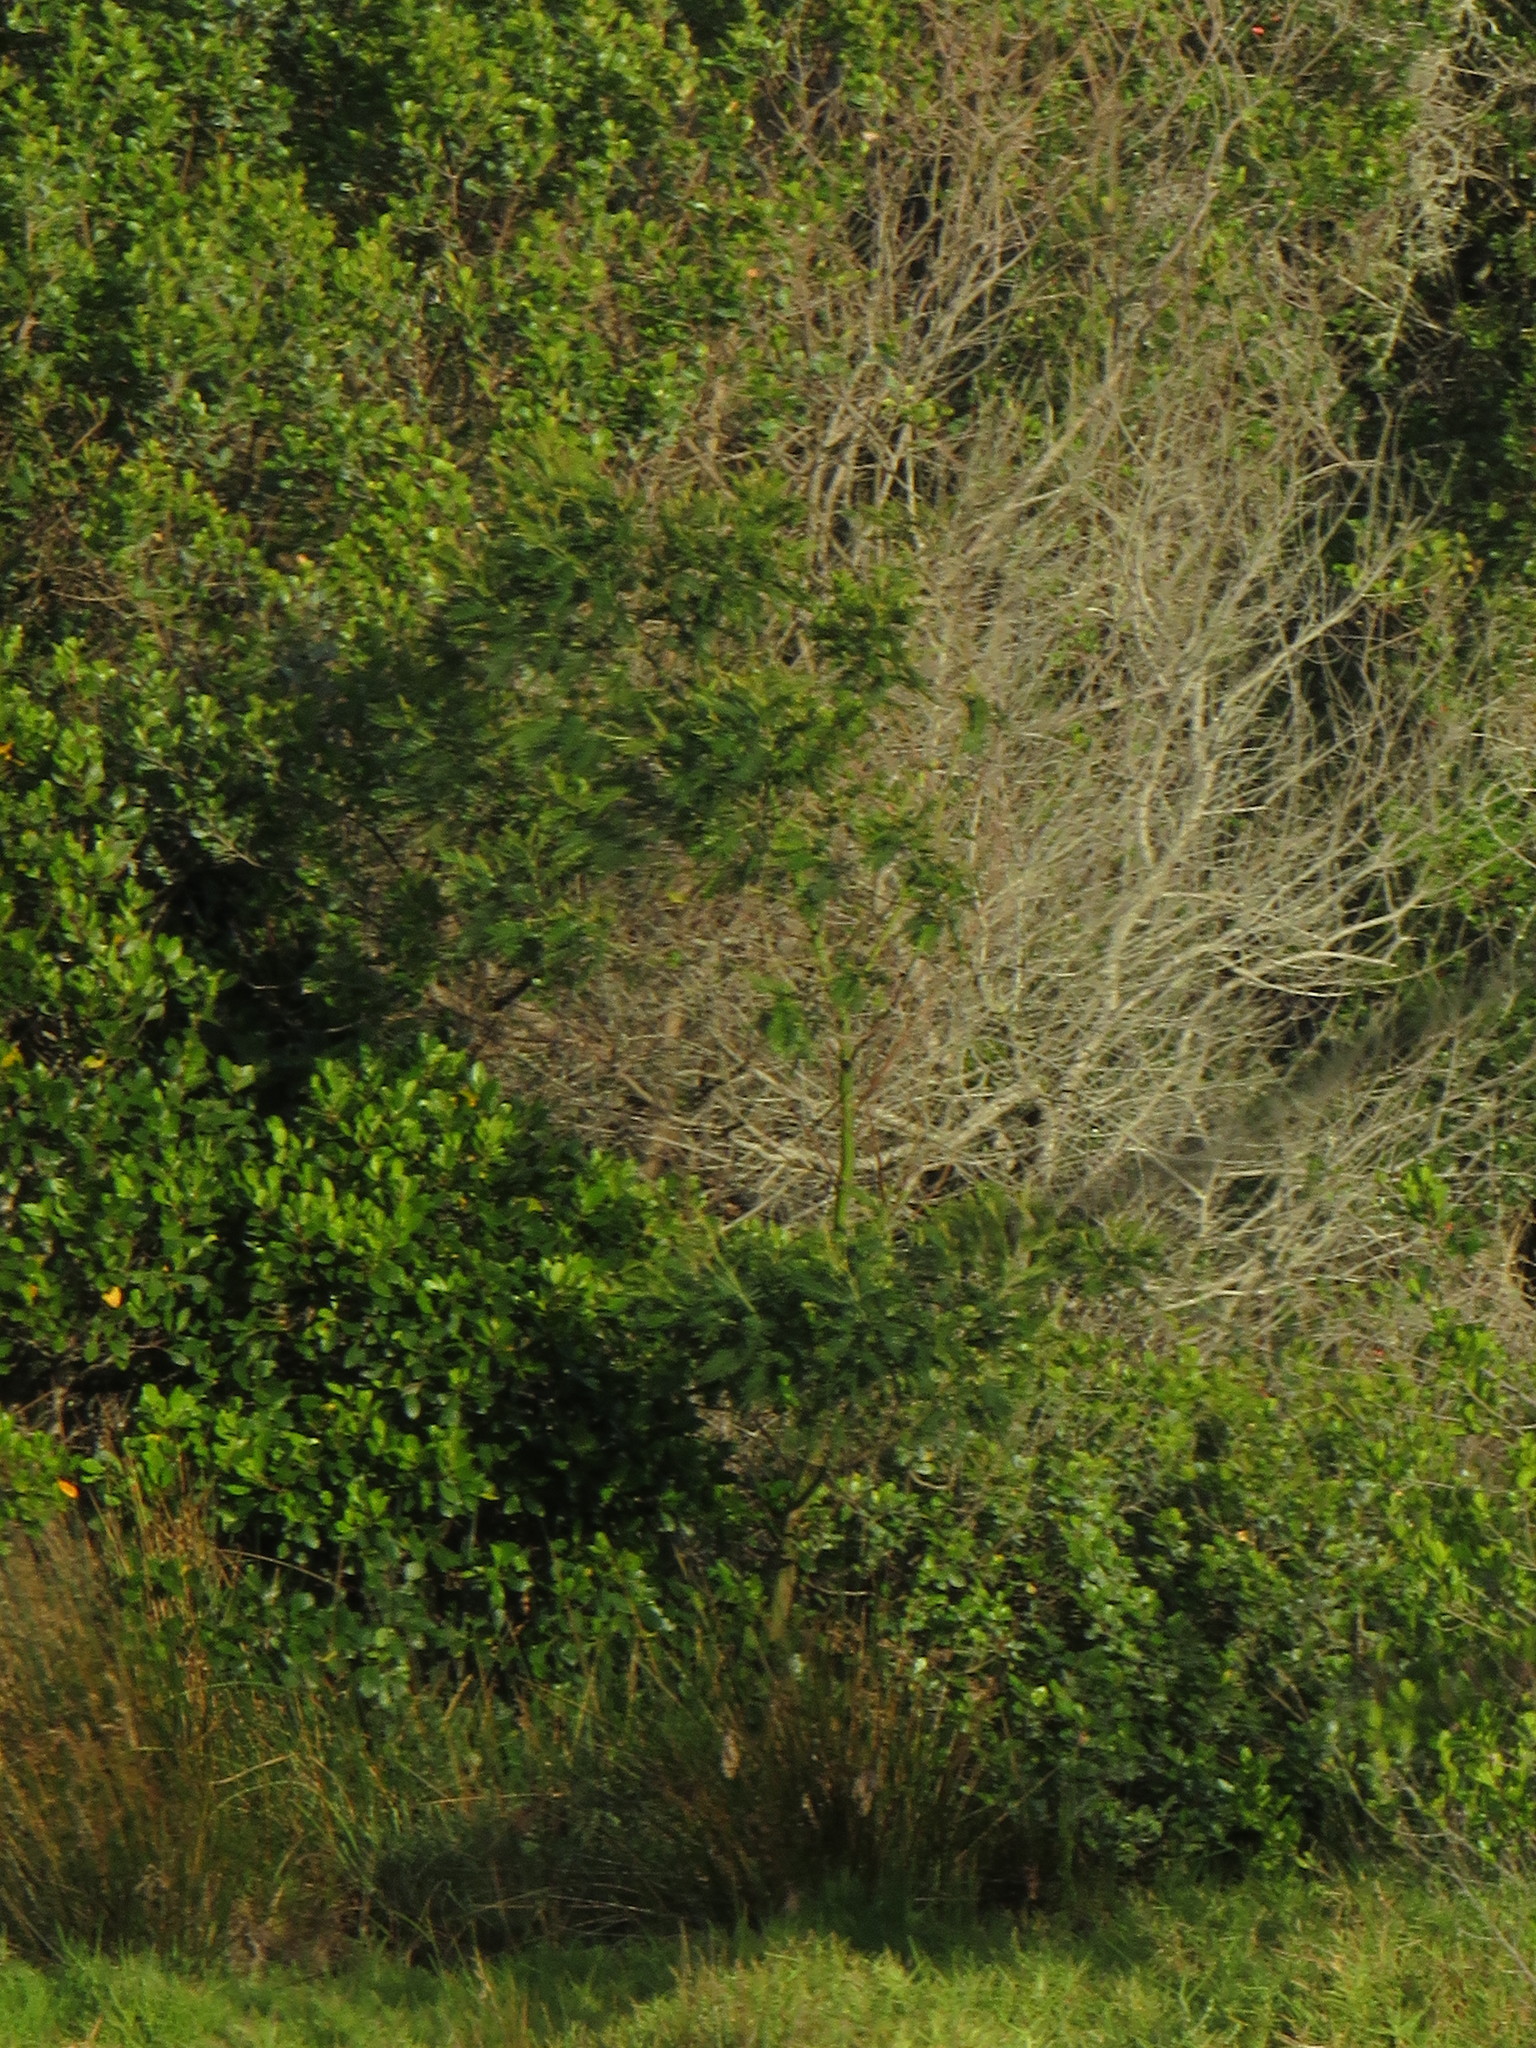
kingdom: Plantae
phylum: Tracheophyta
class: Magnoliopsida
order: Fabales
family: Fabaceae
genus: Acacia
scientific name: Acacia mearnsii
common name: Black wattle
